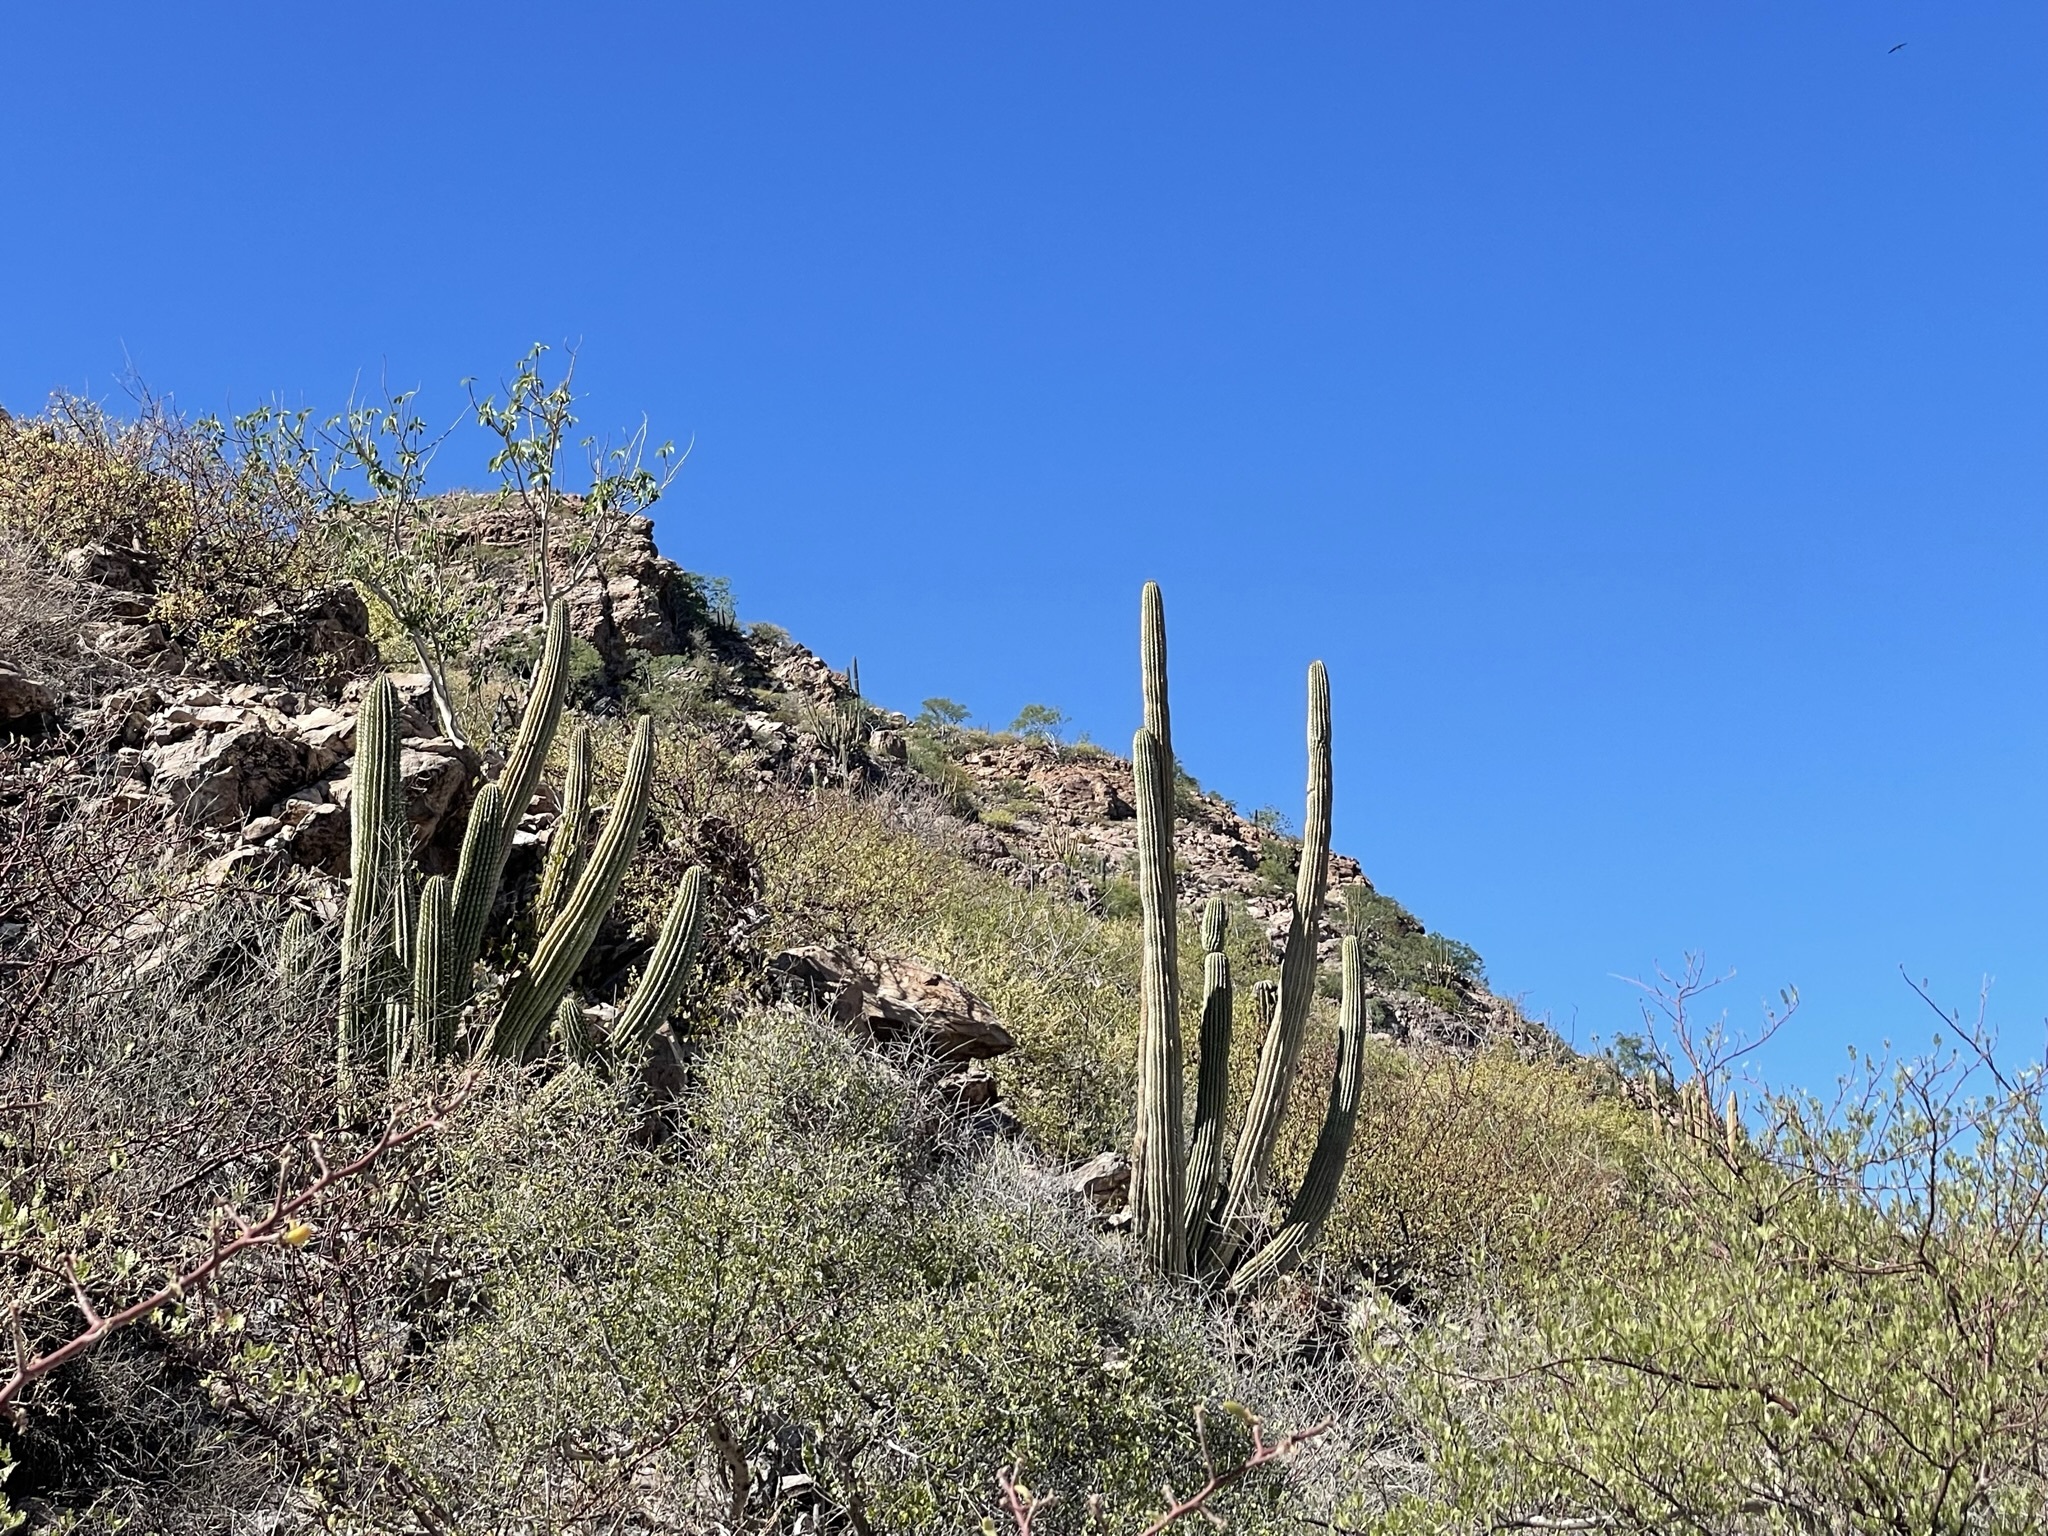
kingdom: Plantae
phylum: Tracheophyta
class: Magnoliopsida
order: Caryophyllales
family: Cactaceae
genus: Stenocereus
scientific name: Stenocereus thurberi
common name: Organ pipe cactus
